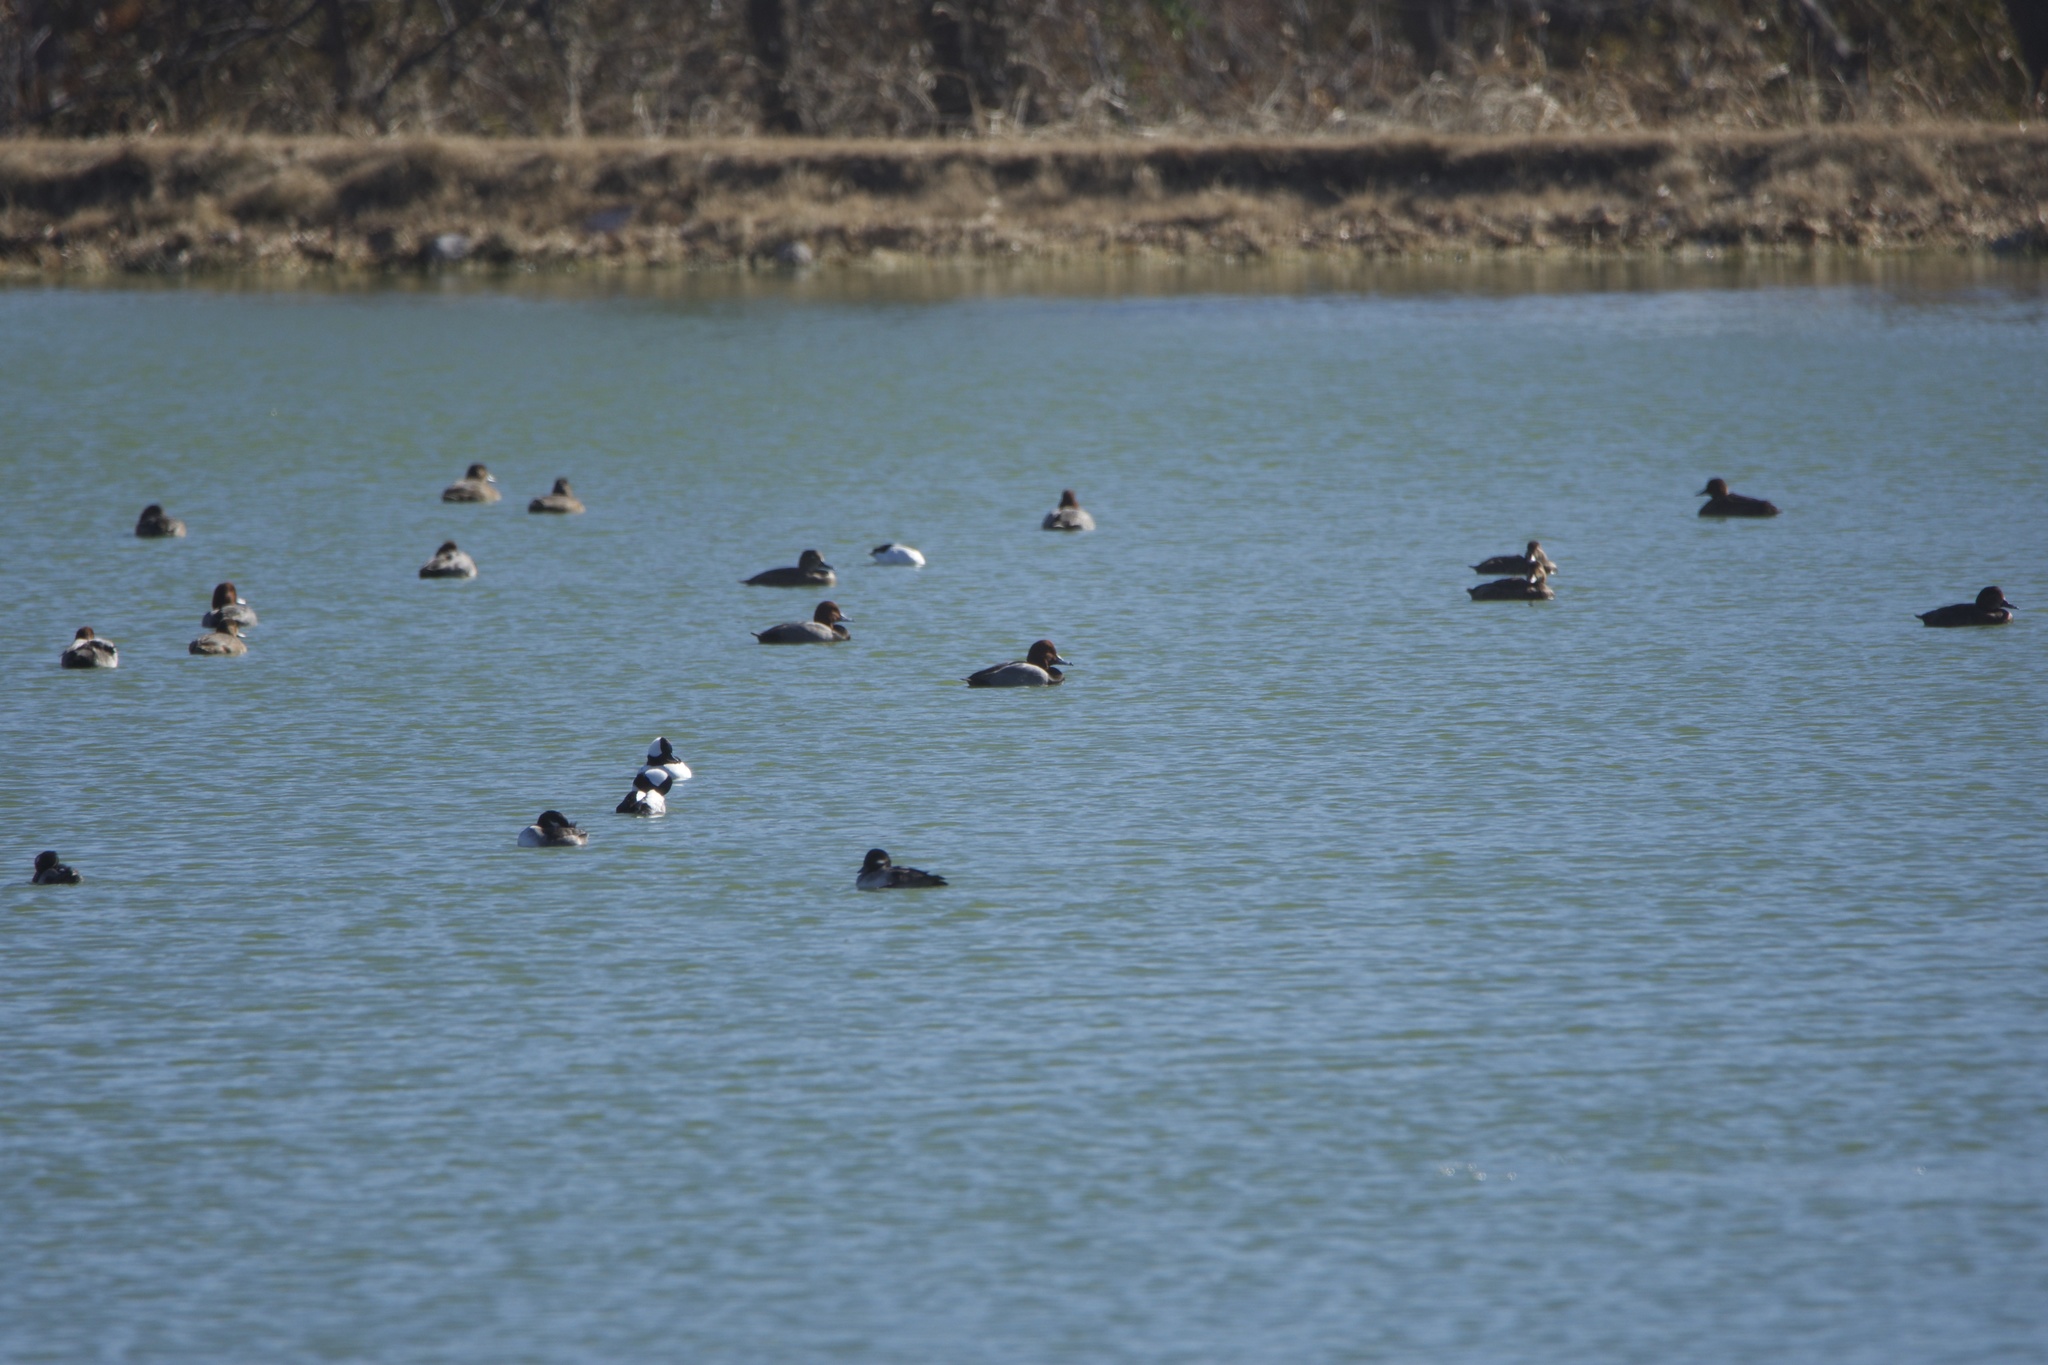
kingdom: Animalia
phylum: Chordata
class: Aves
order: Anseriformes
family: Anatidae
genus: Aythya
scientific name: Aythya americana
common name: Redhead
